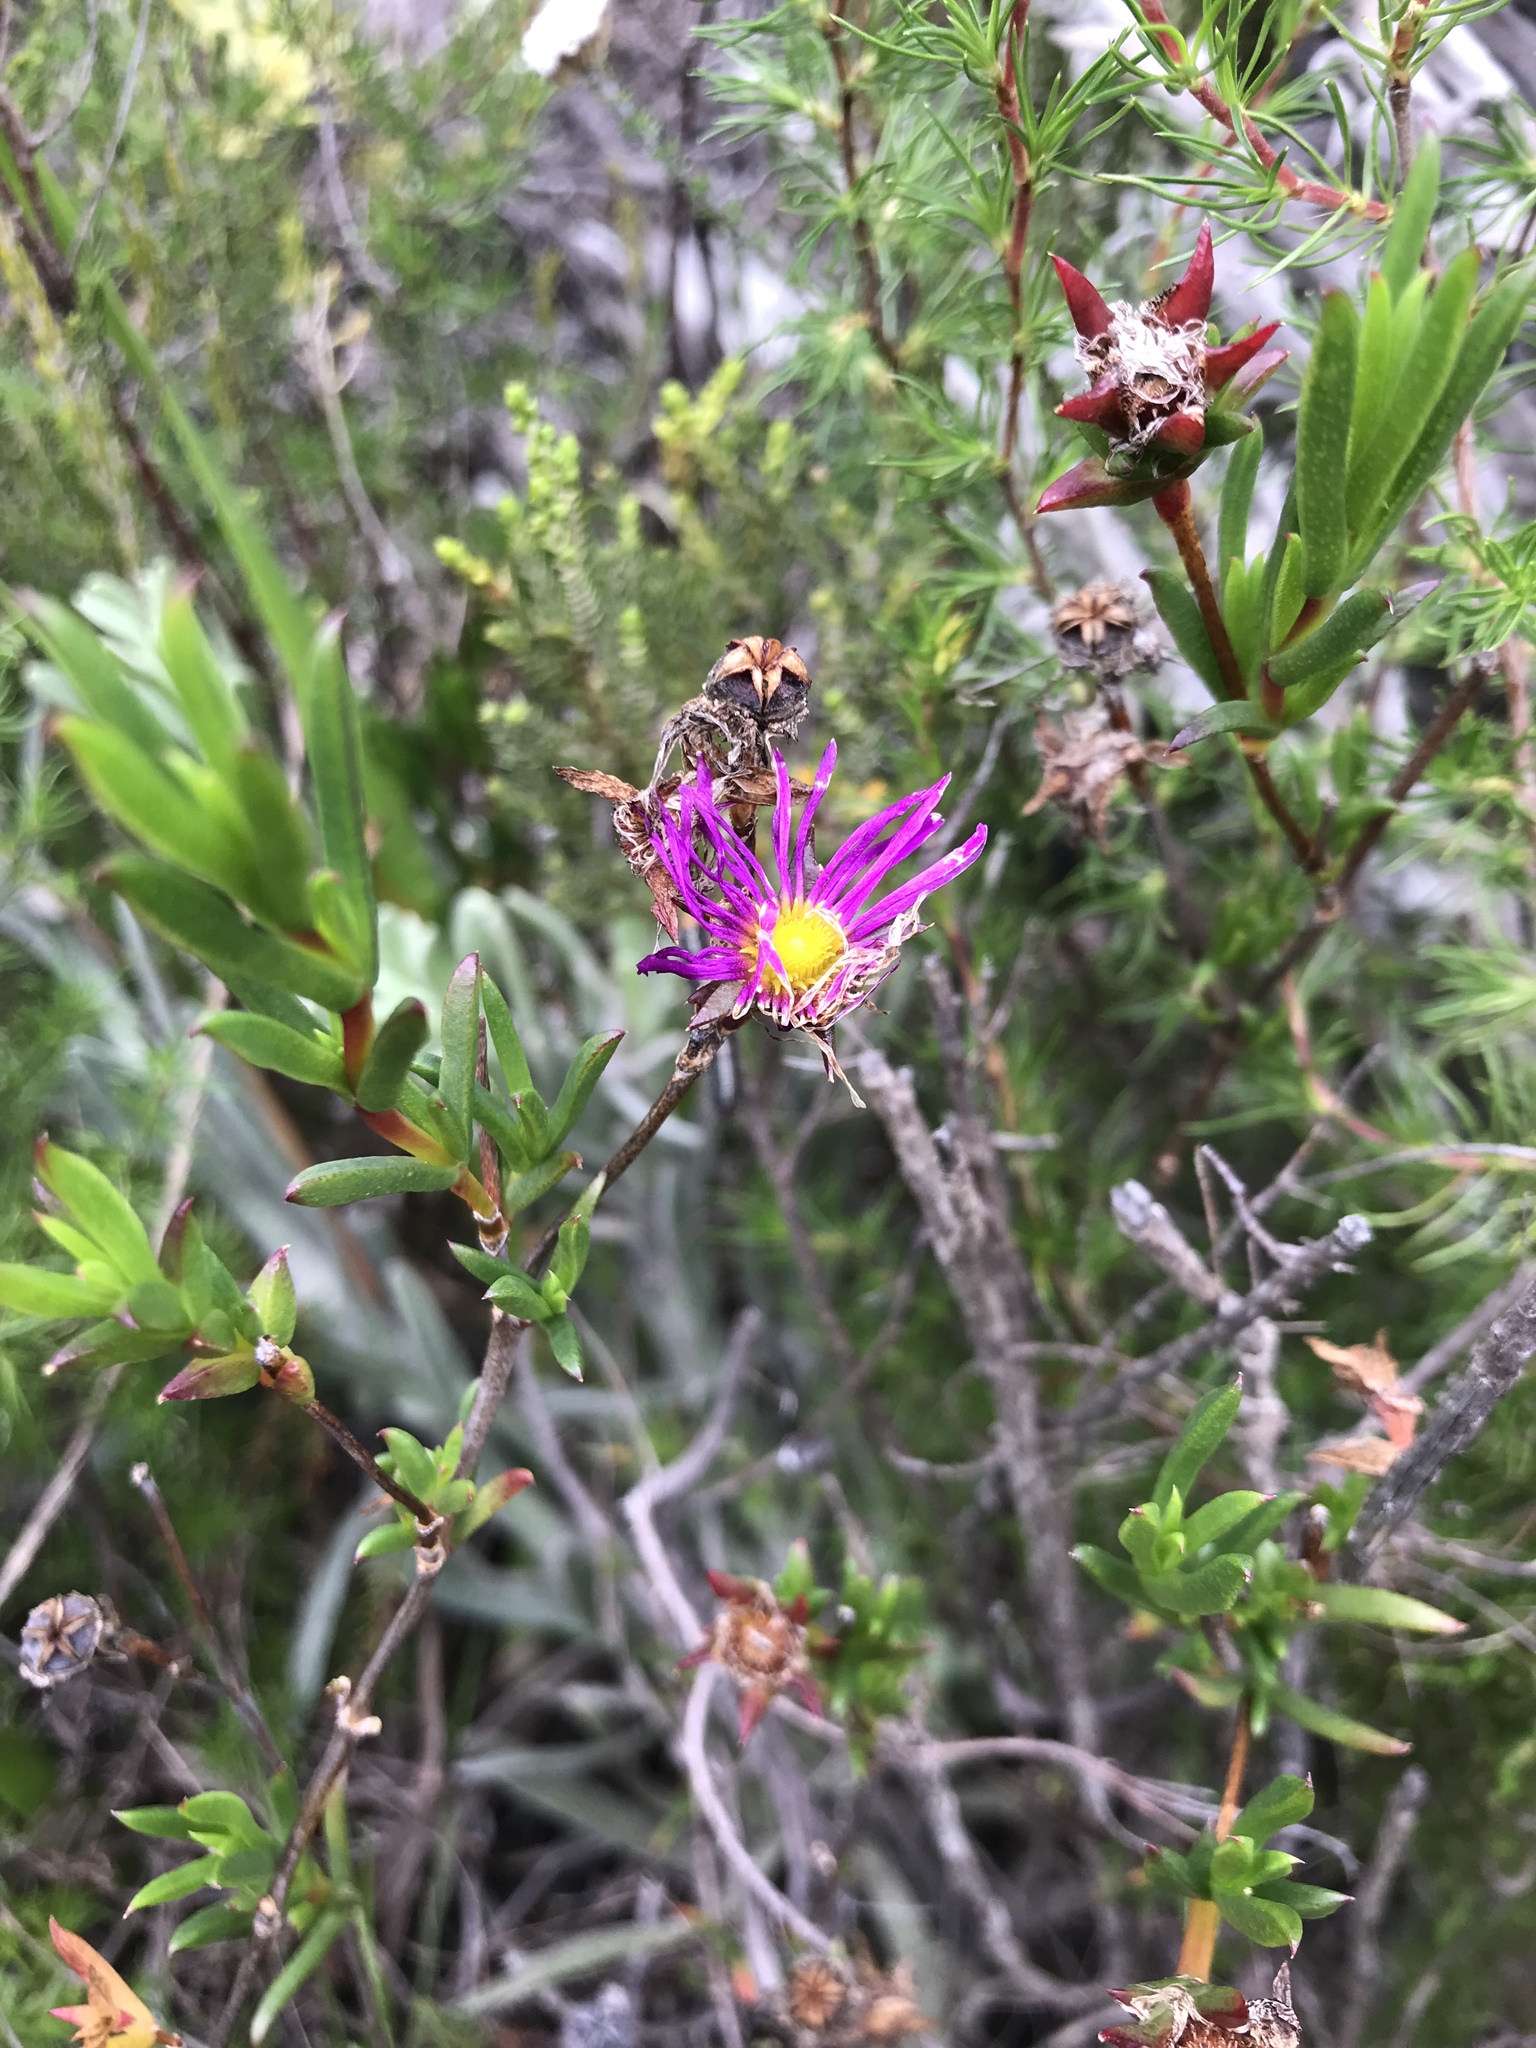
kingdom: Plantae
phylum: Tracheophyta
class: Magnoliopsida
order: Caryophyllales
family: Aizoaceae
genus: Erepsia
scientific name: Erepsia anceps
